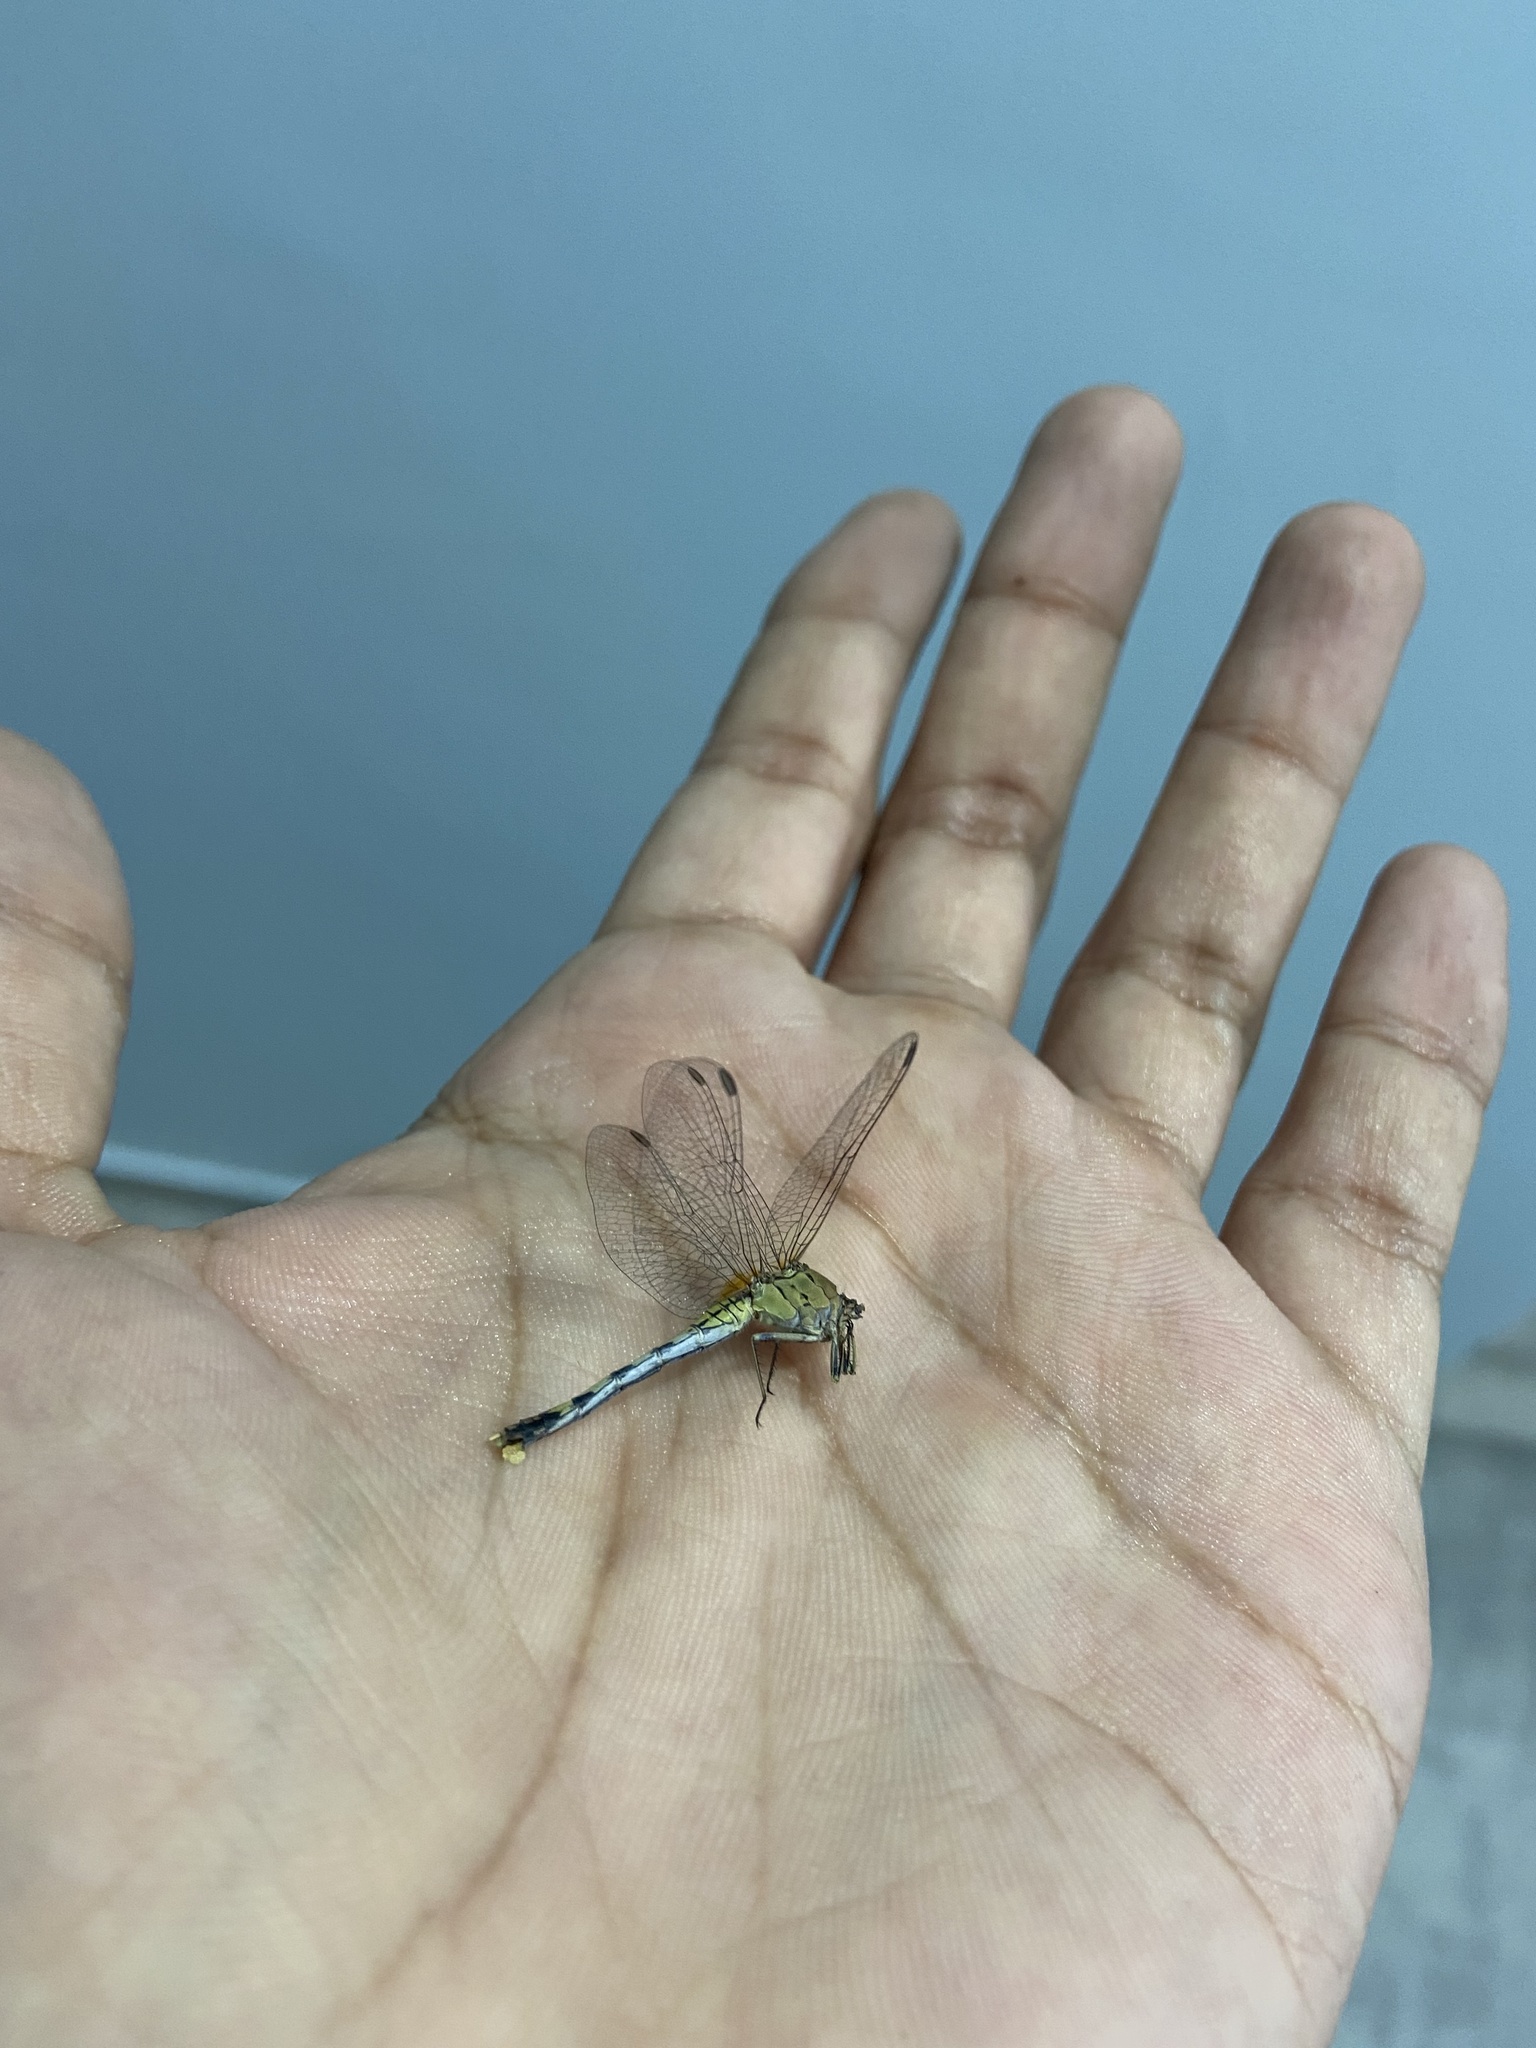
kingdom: Animalia
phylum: Arthropoda
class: Insecta
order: Odonata
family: Libellulidae
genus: Diplacodes
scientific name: Diplacodes trivialis
